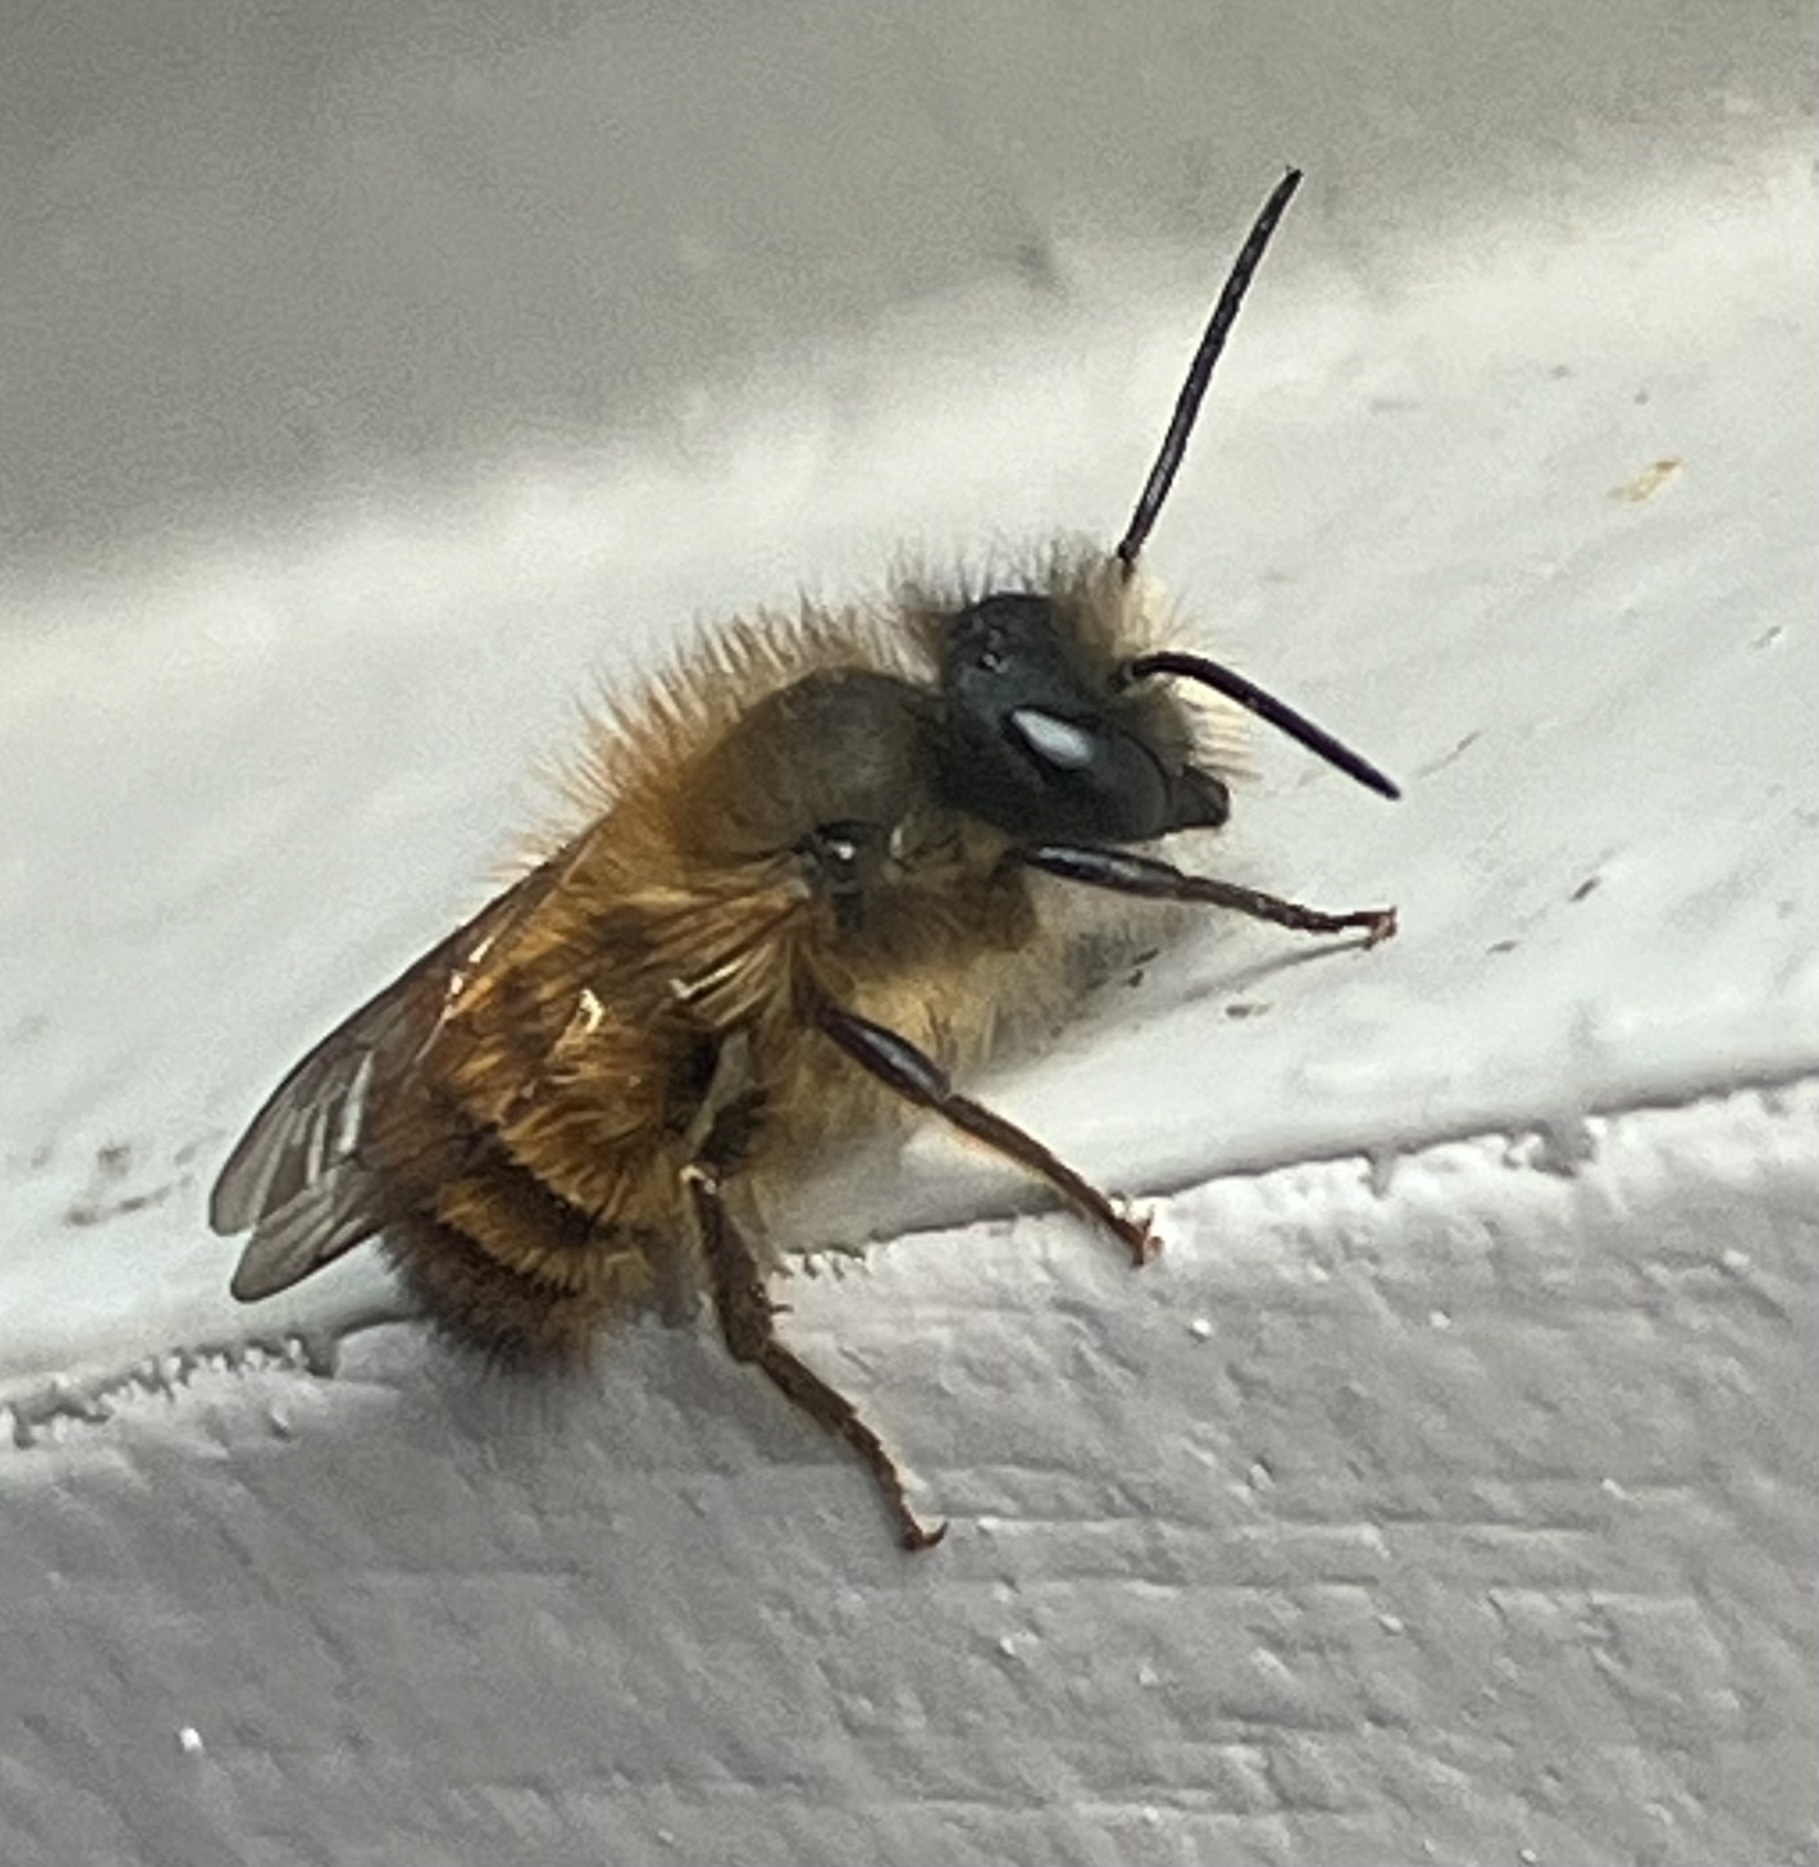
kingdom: Animalia
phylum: Arthropoda
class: Insecta
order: Hymenoptera
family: Megachilidae
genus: Osmia
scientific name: Osmia bicornis
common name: Red mason bee
